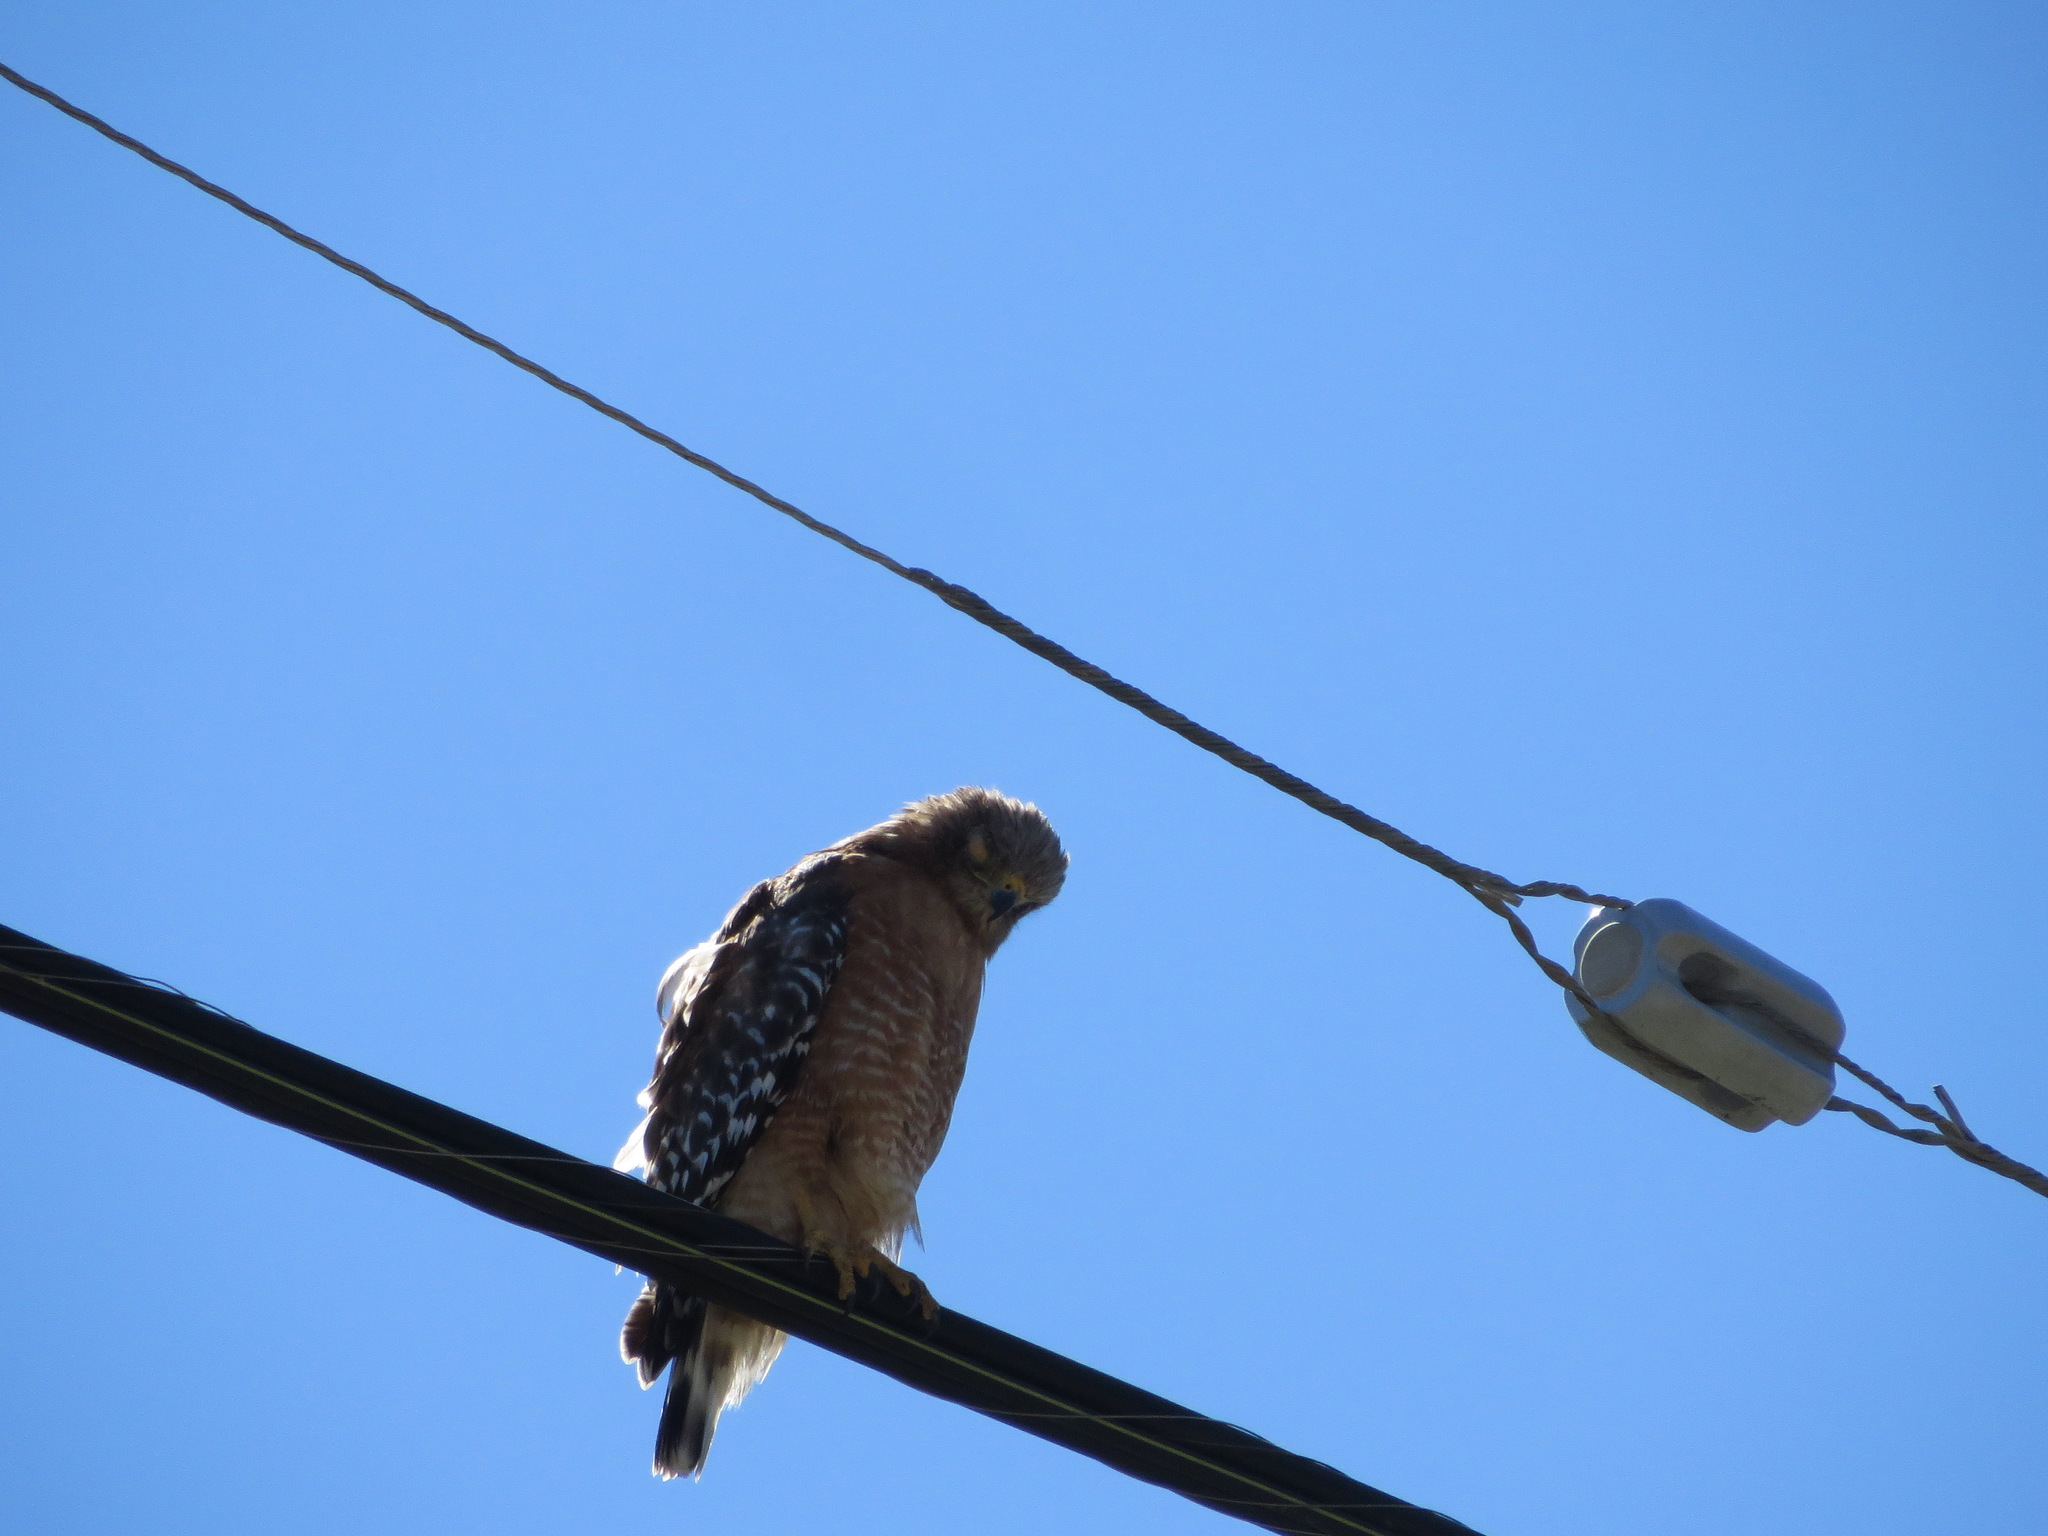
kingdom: Animalia
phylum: Chordata
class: Aves
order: Accipitriformes
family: Accipitridae
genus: Buteo
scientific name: Buteo lineatus
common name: Red-shouldered hawk
